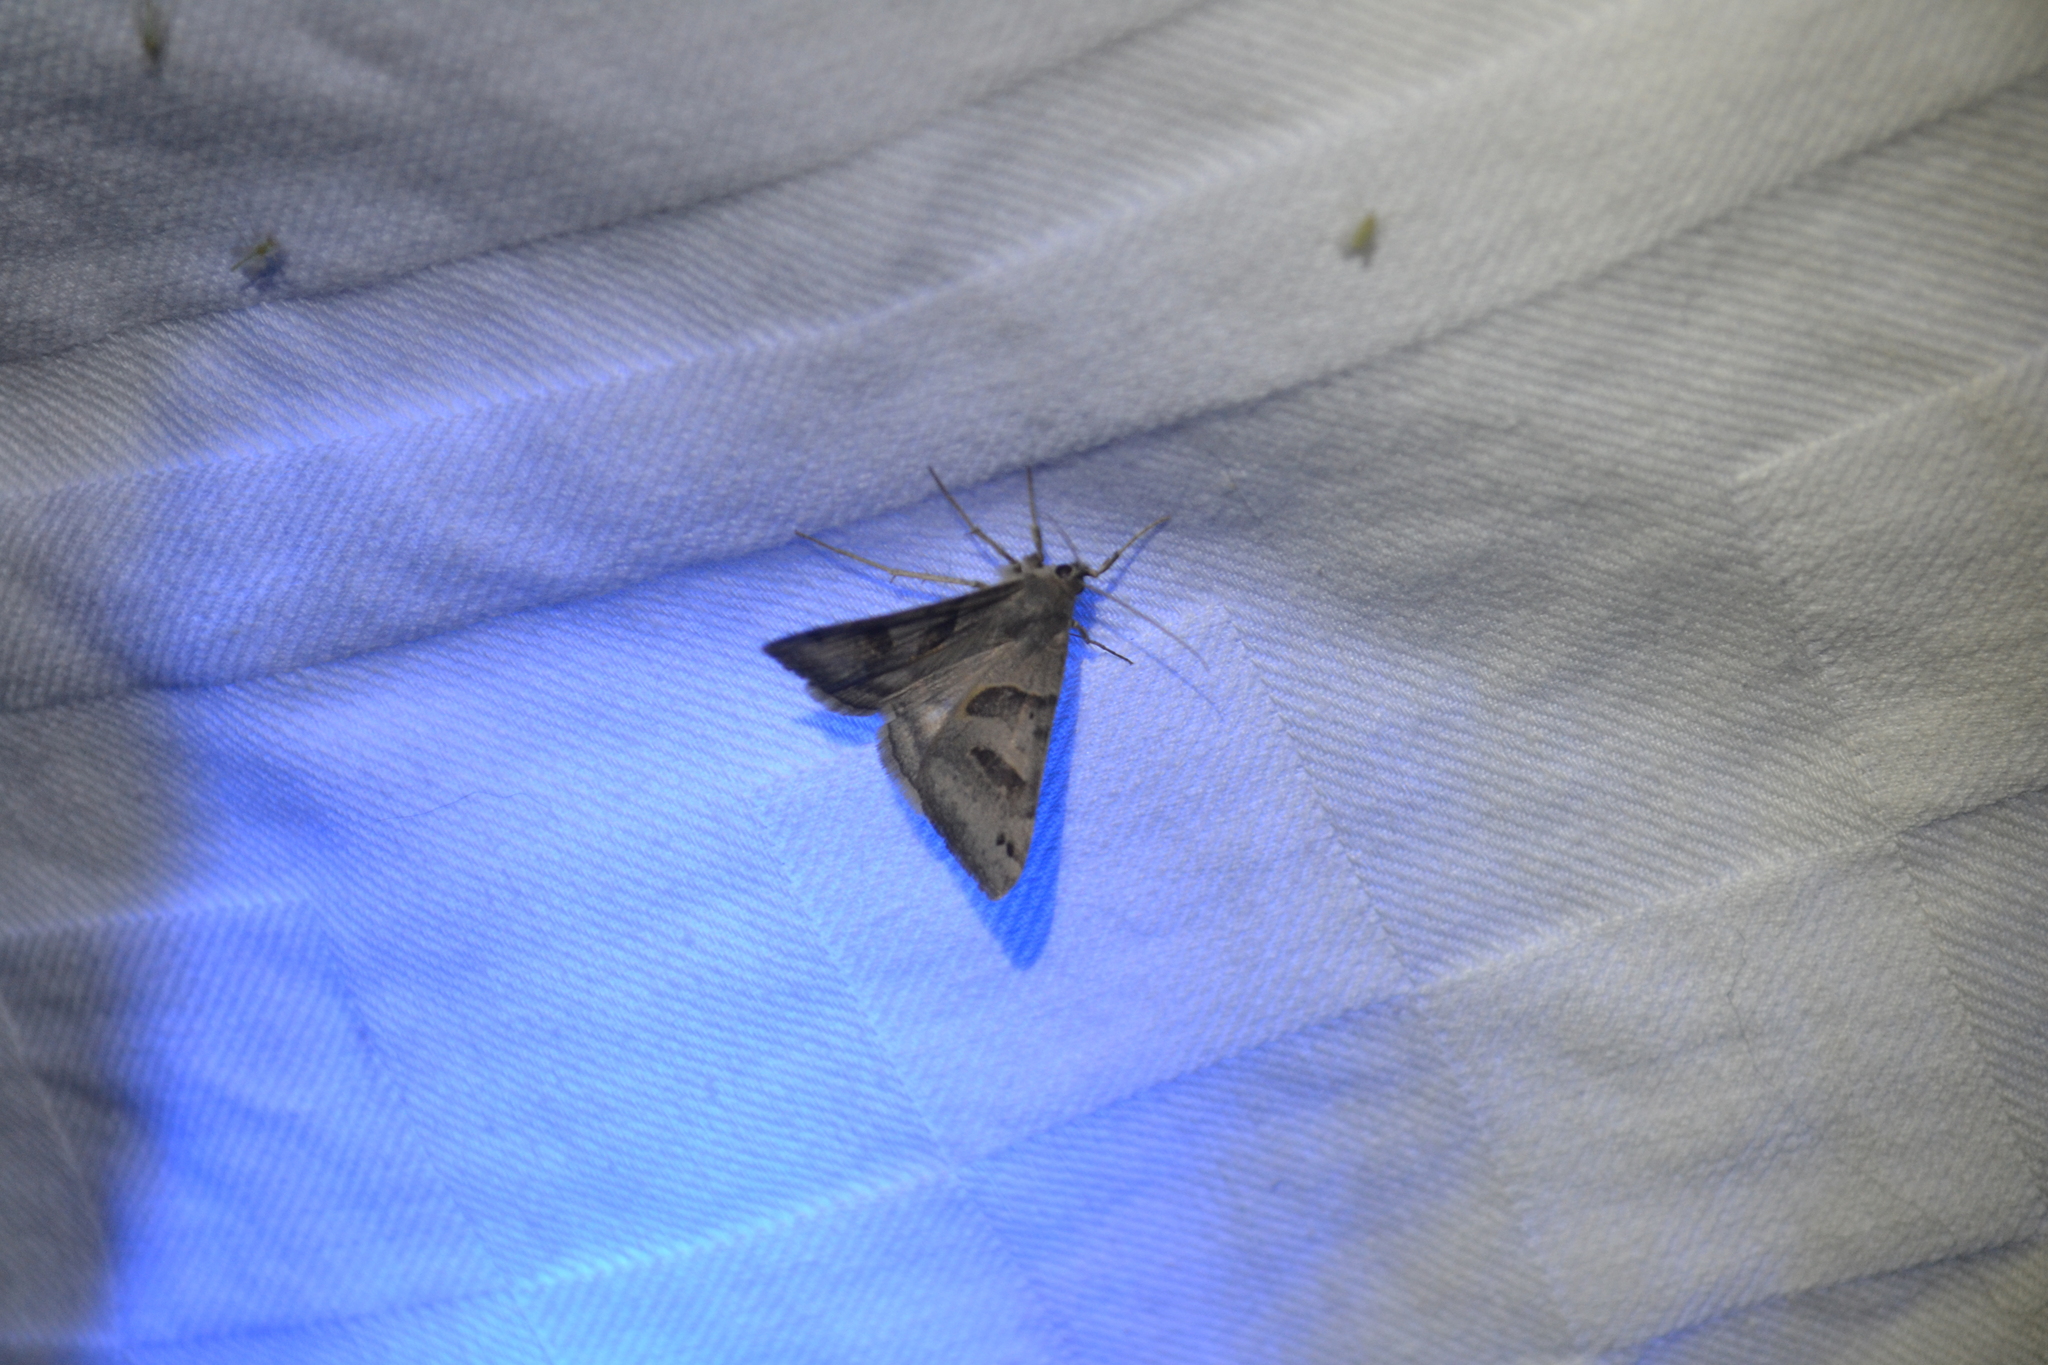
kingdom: Animalia
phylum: Arthropoda
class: Insecta
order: Lepidoptera
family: Erebidae
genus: Caenurgina
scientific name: Caenurgina erechtea
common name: Forage looper moth
